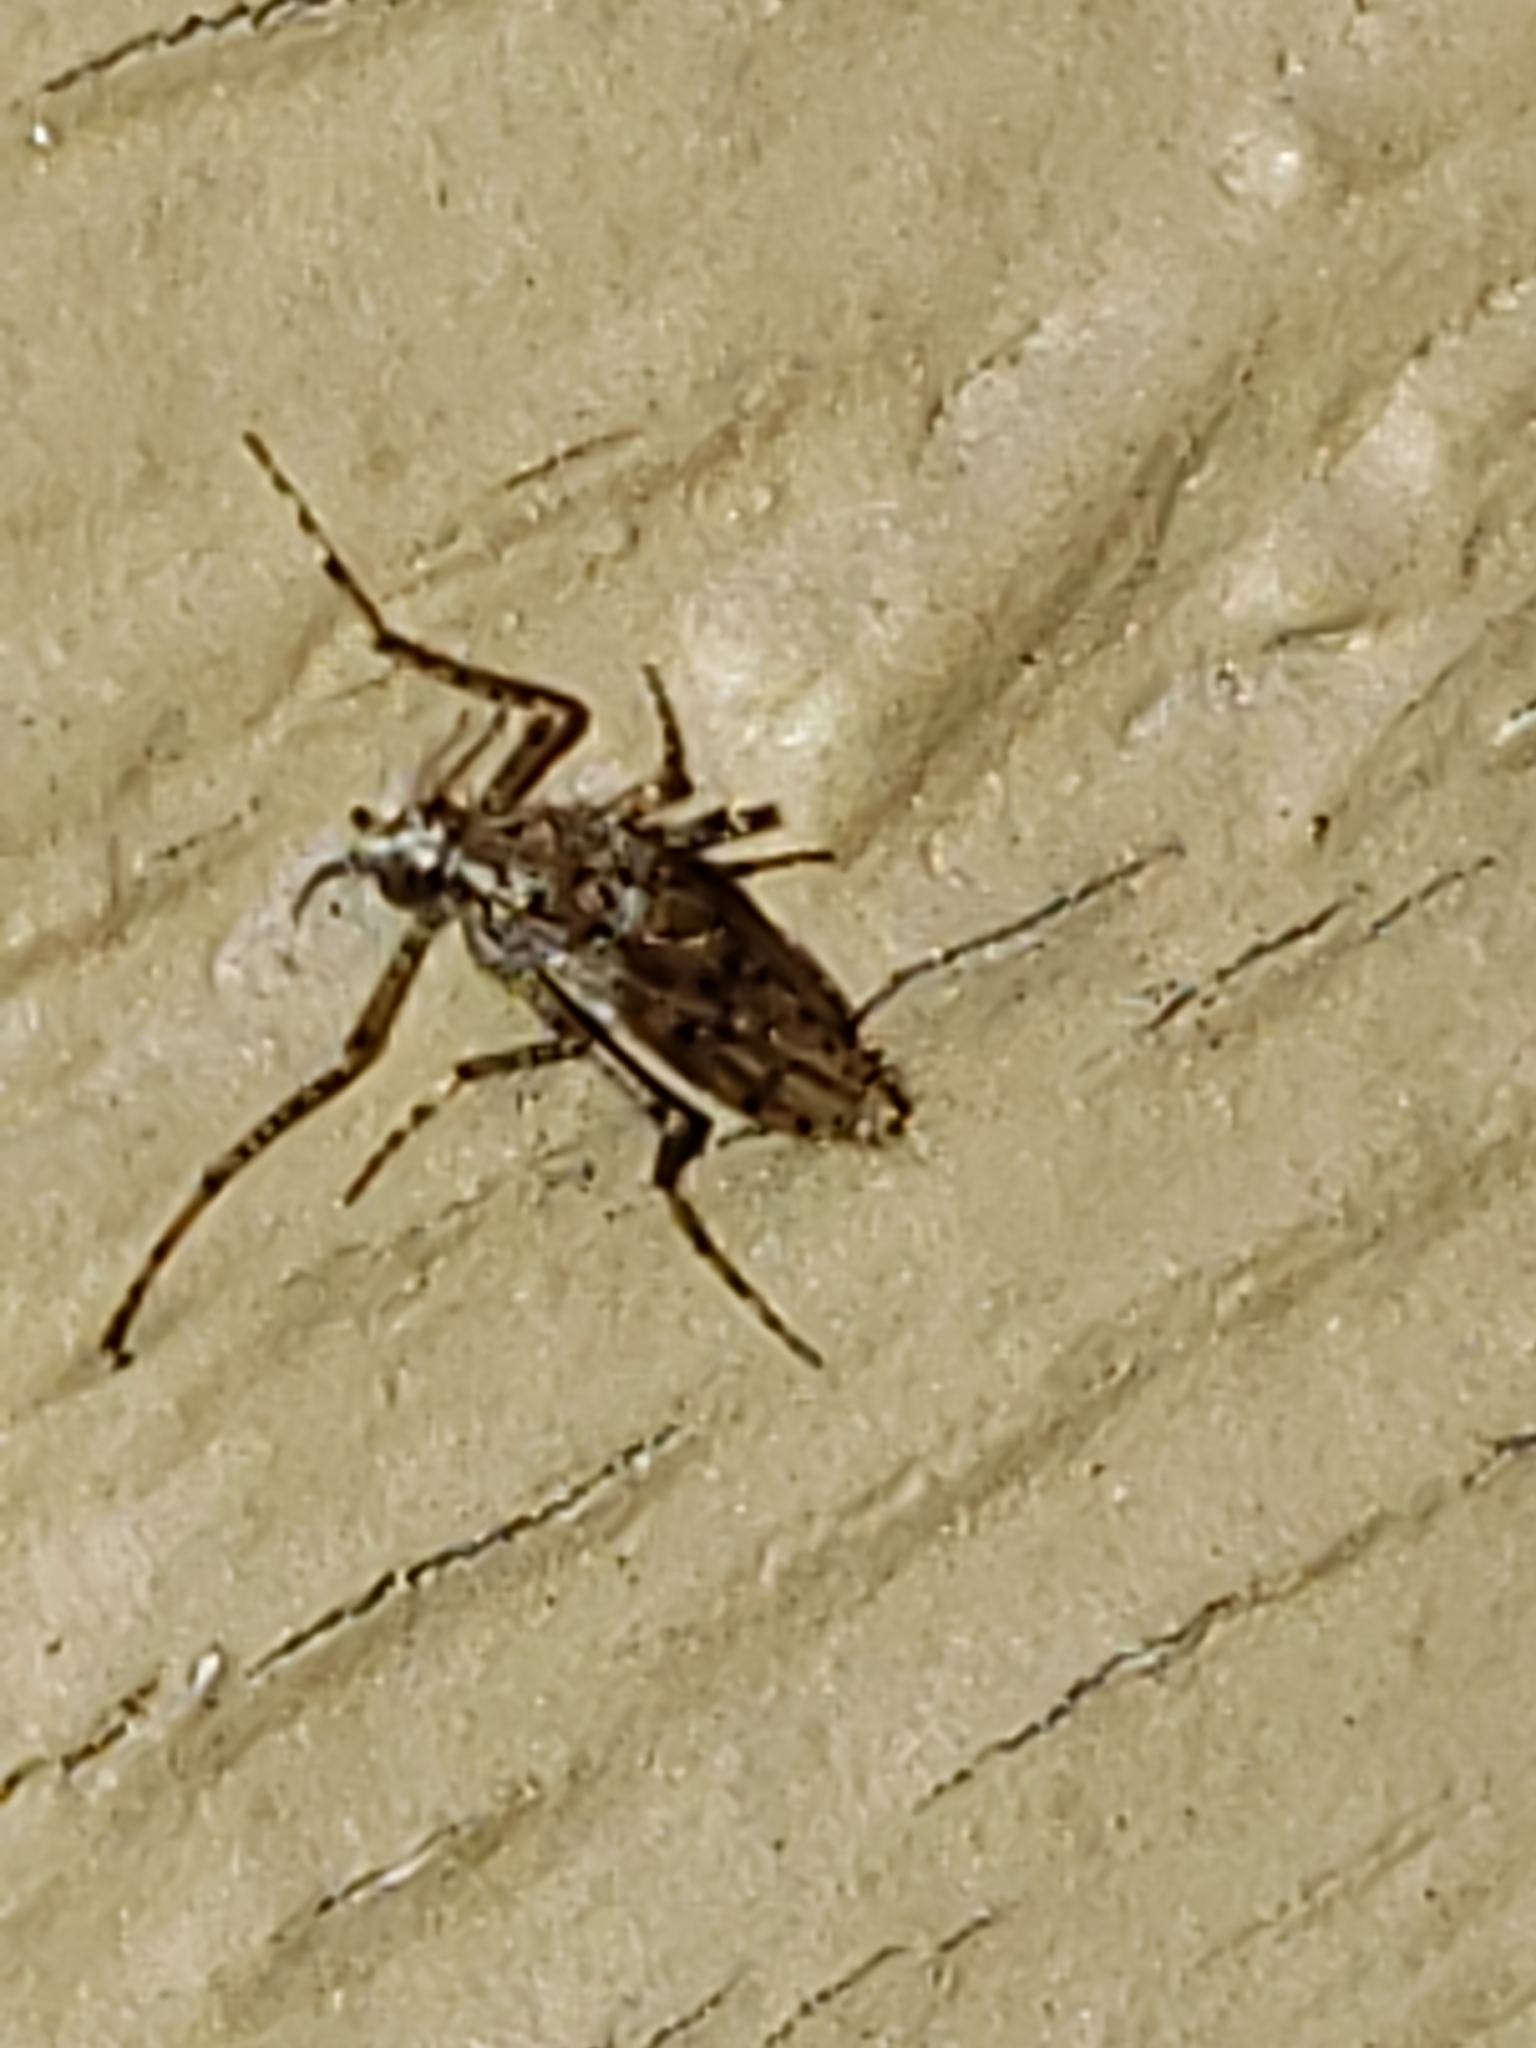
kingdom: Animalia
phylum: Arthropoda
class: Insecta
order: Diptera
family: Chaoboridae
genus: Chaoborus
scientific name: Chaoborus punctipennis
